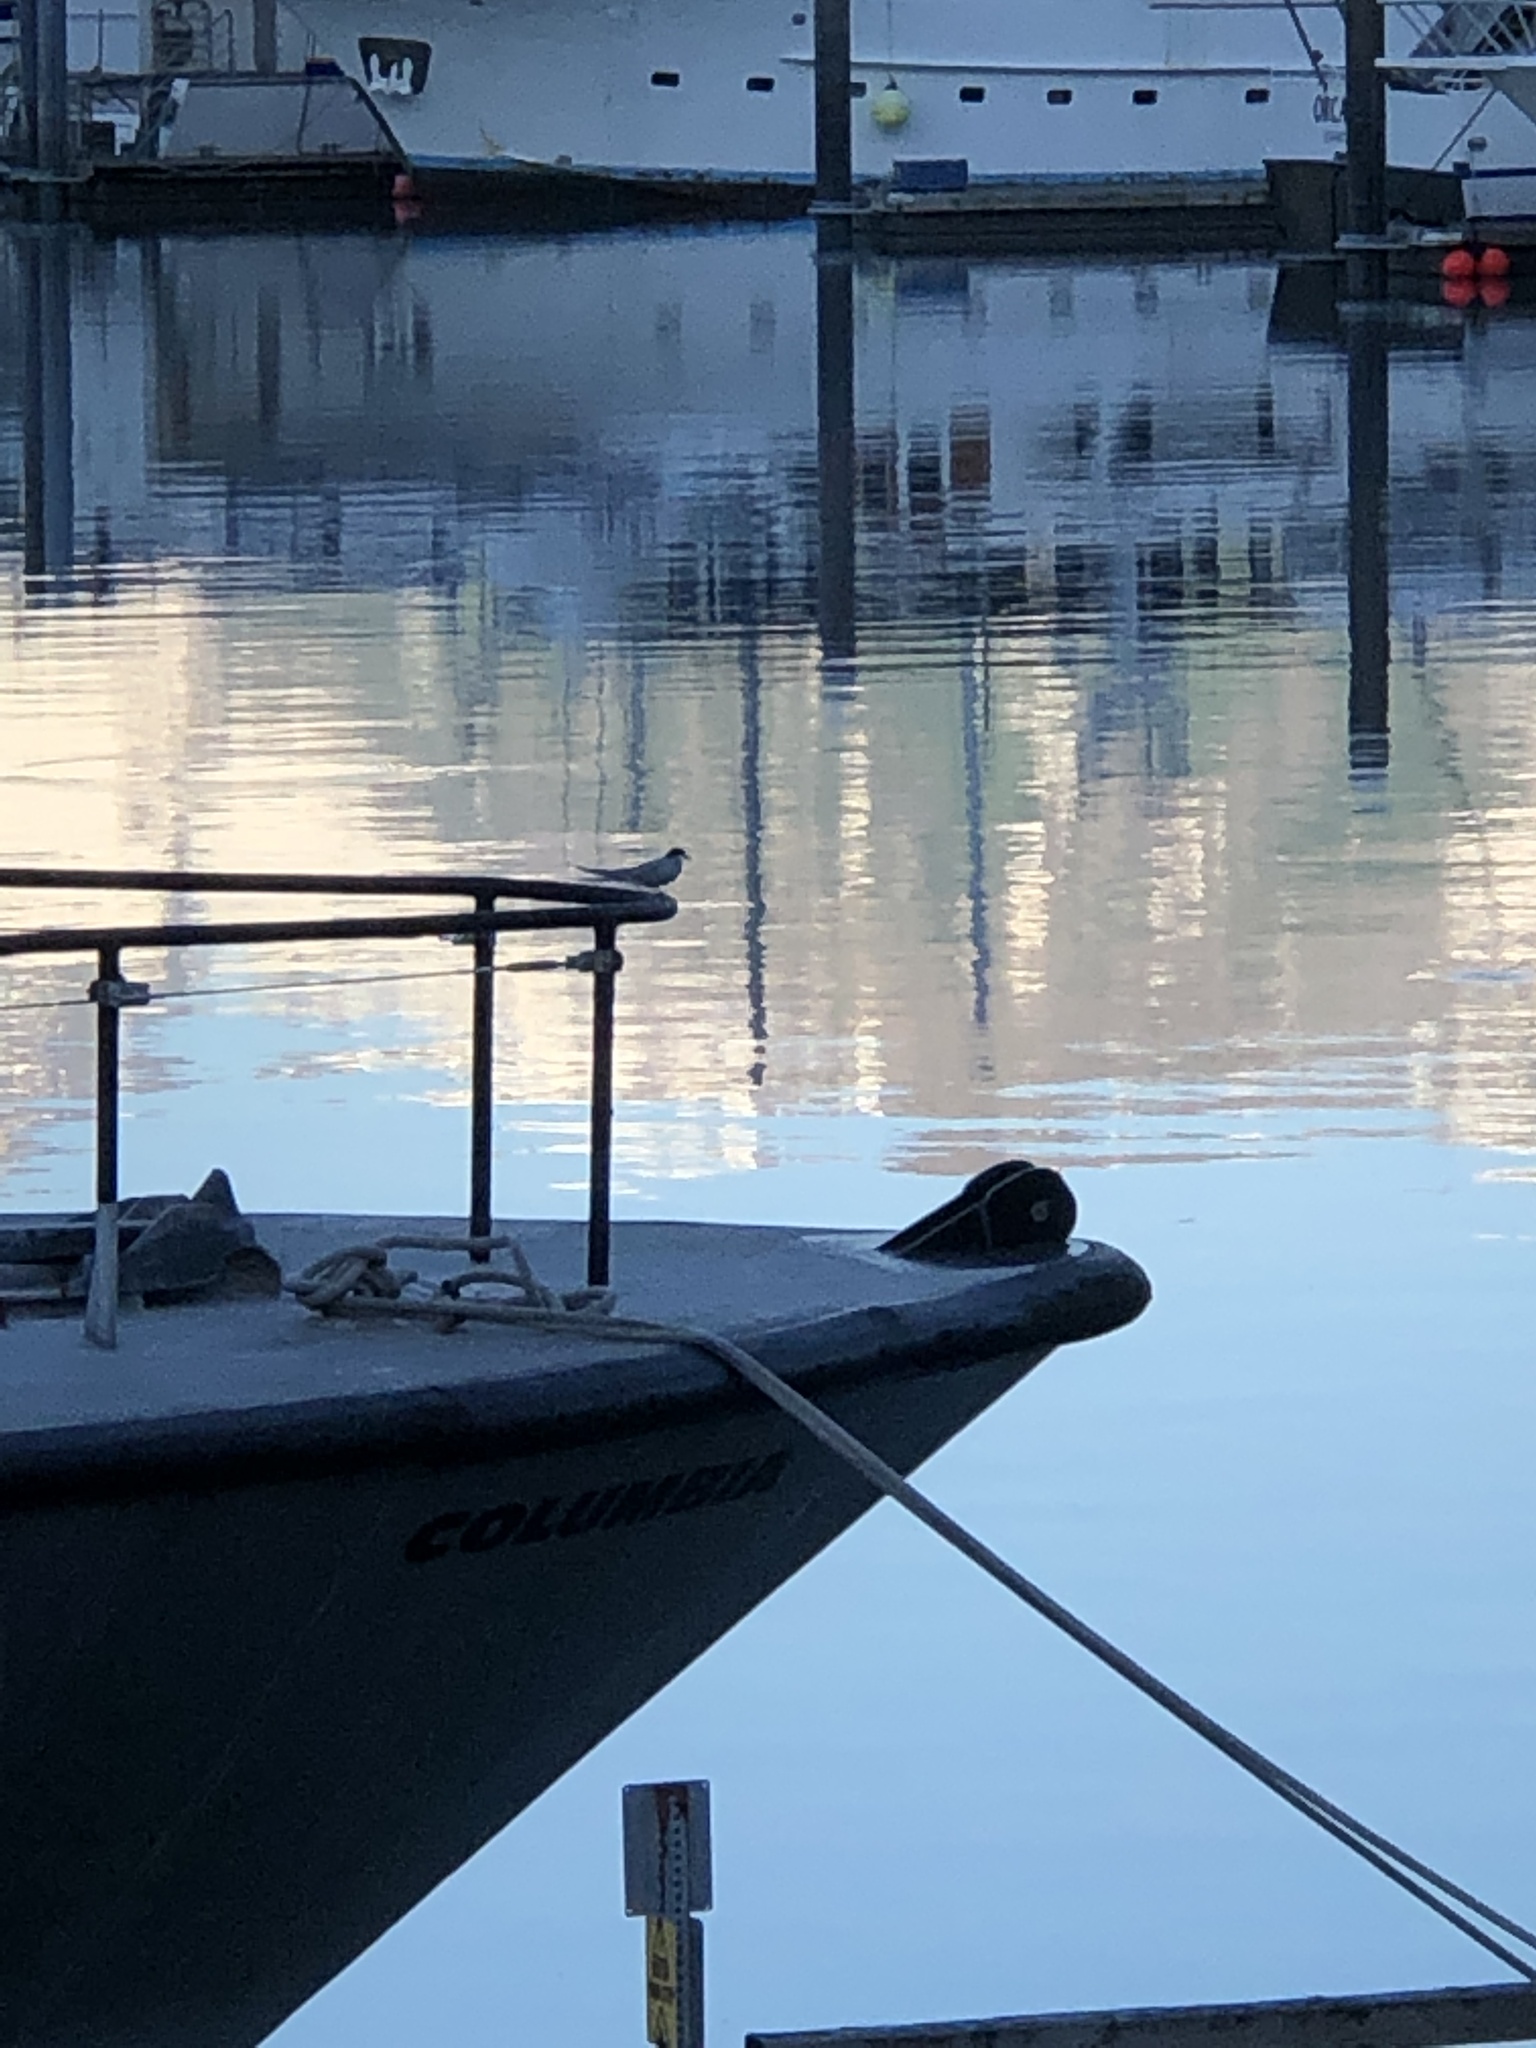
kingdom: Animalia
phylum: Chordata
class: Aves
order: Charadriiformes
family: Laridae
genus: Sterna
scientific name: Sterna paradisaea
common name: Arctic tern
